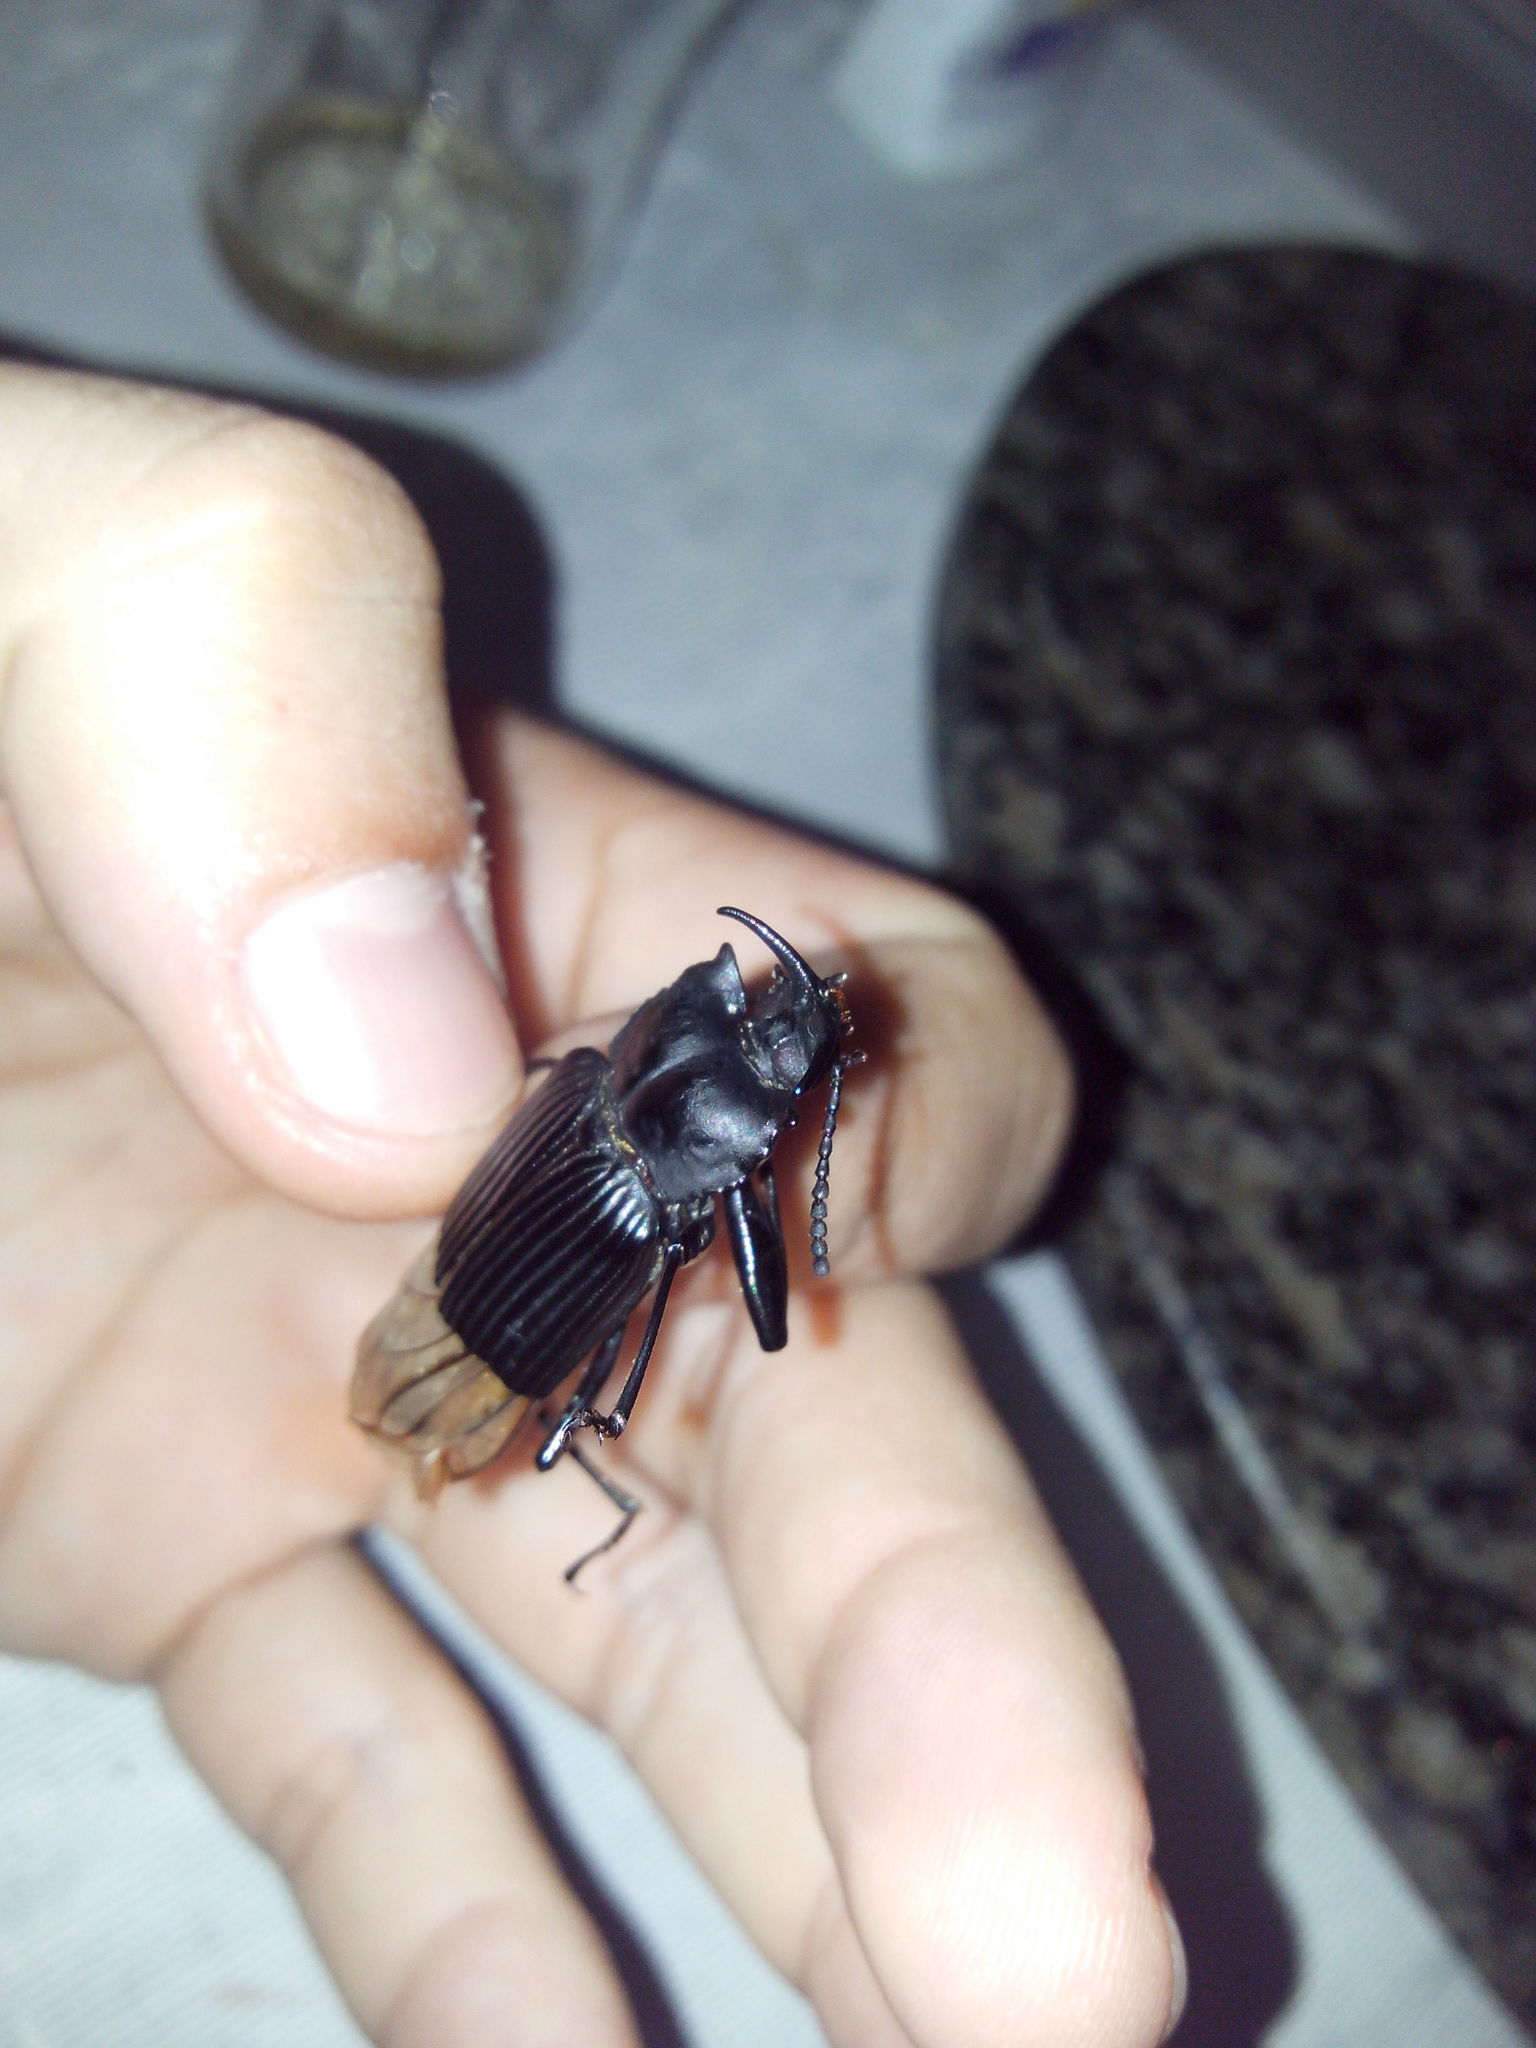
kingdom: Animalia
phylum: Arthropoda
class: Insecta
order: Coleoptera
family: Tenebrionidae
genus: Tauroceras
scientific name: Tauroceras
